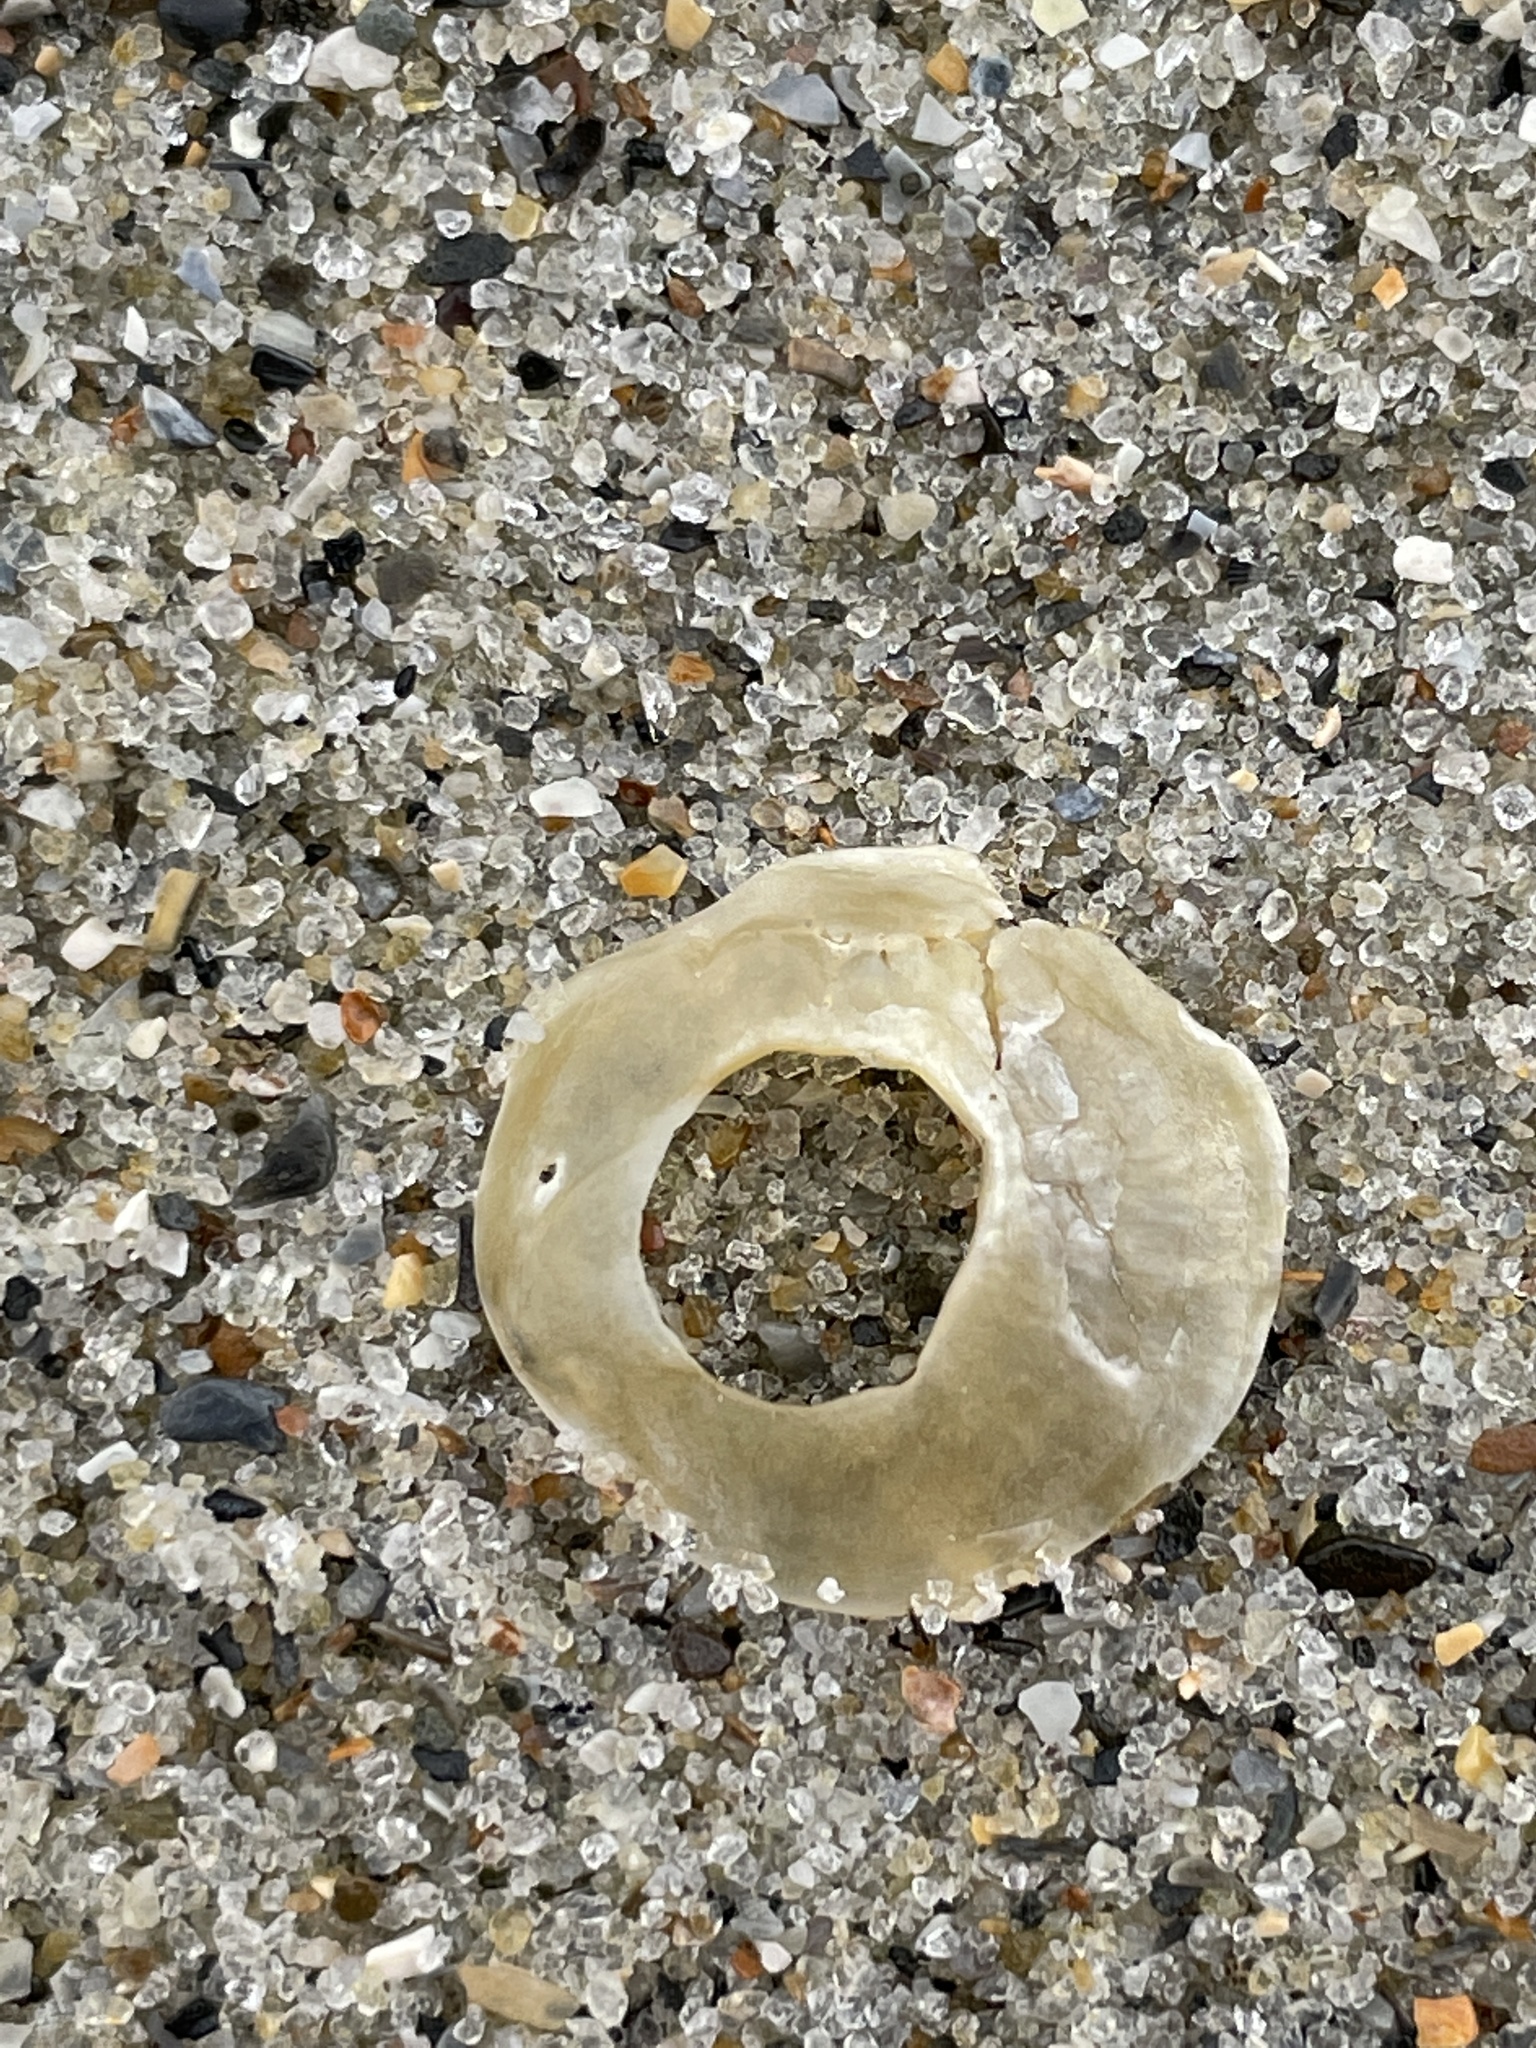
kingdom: Animalia
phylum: Mollusca
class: Bivalvia
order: Pectinida
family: Anomiidae
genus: Anomia
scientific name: Anomia simplex
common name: Common jingle shell
